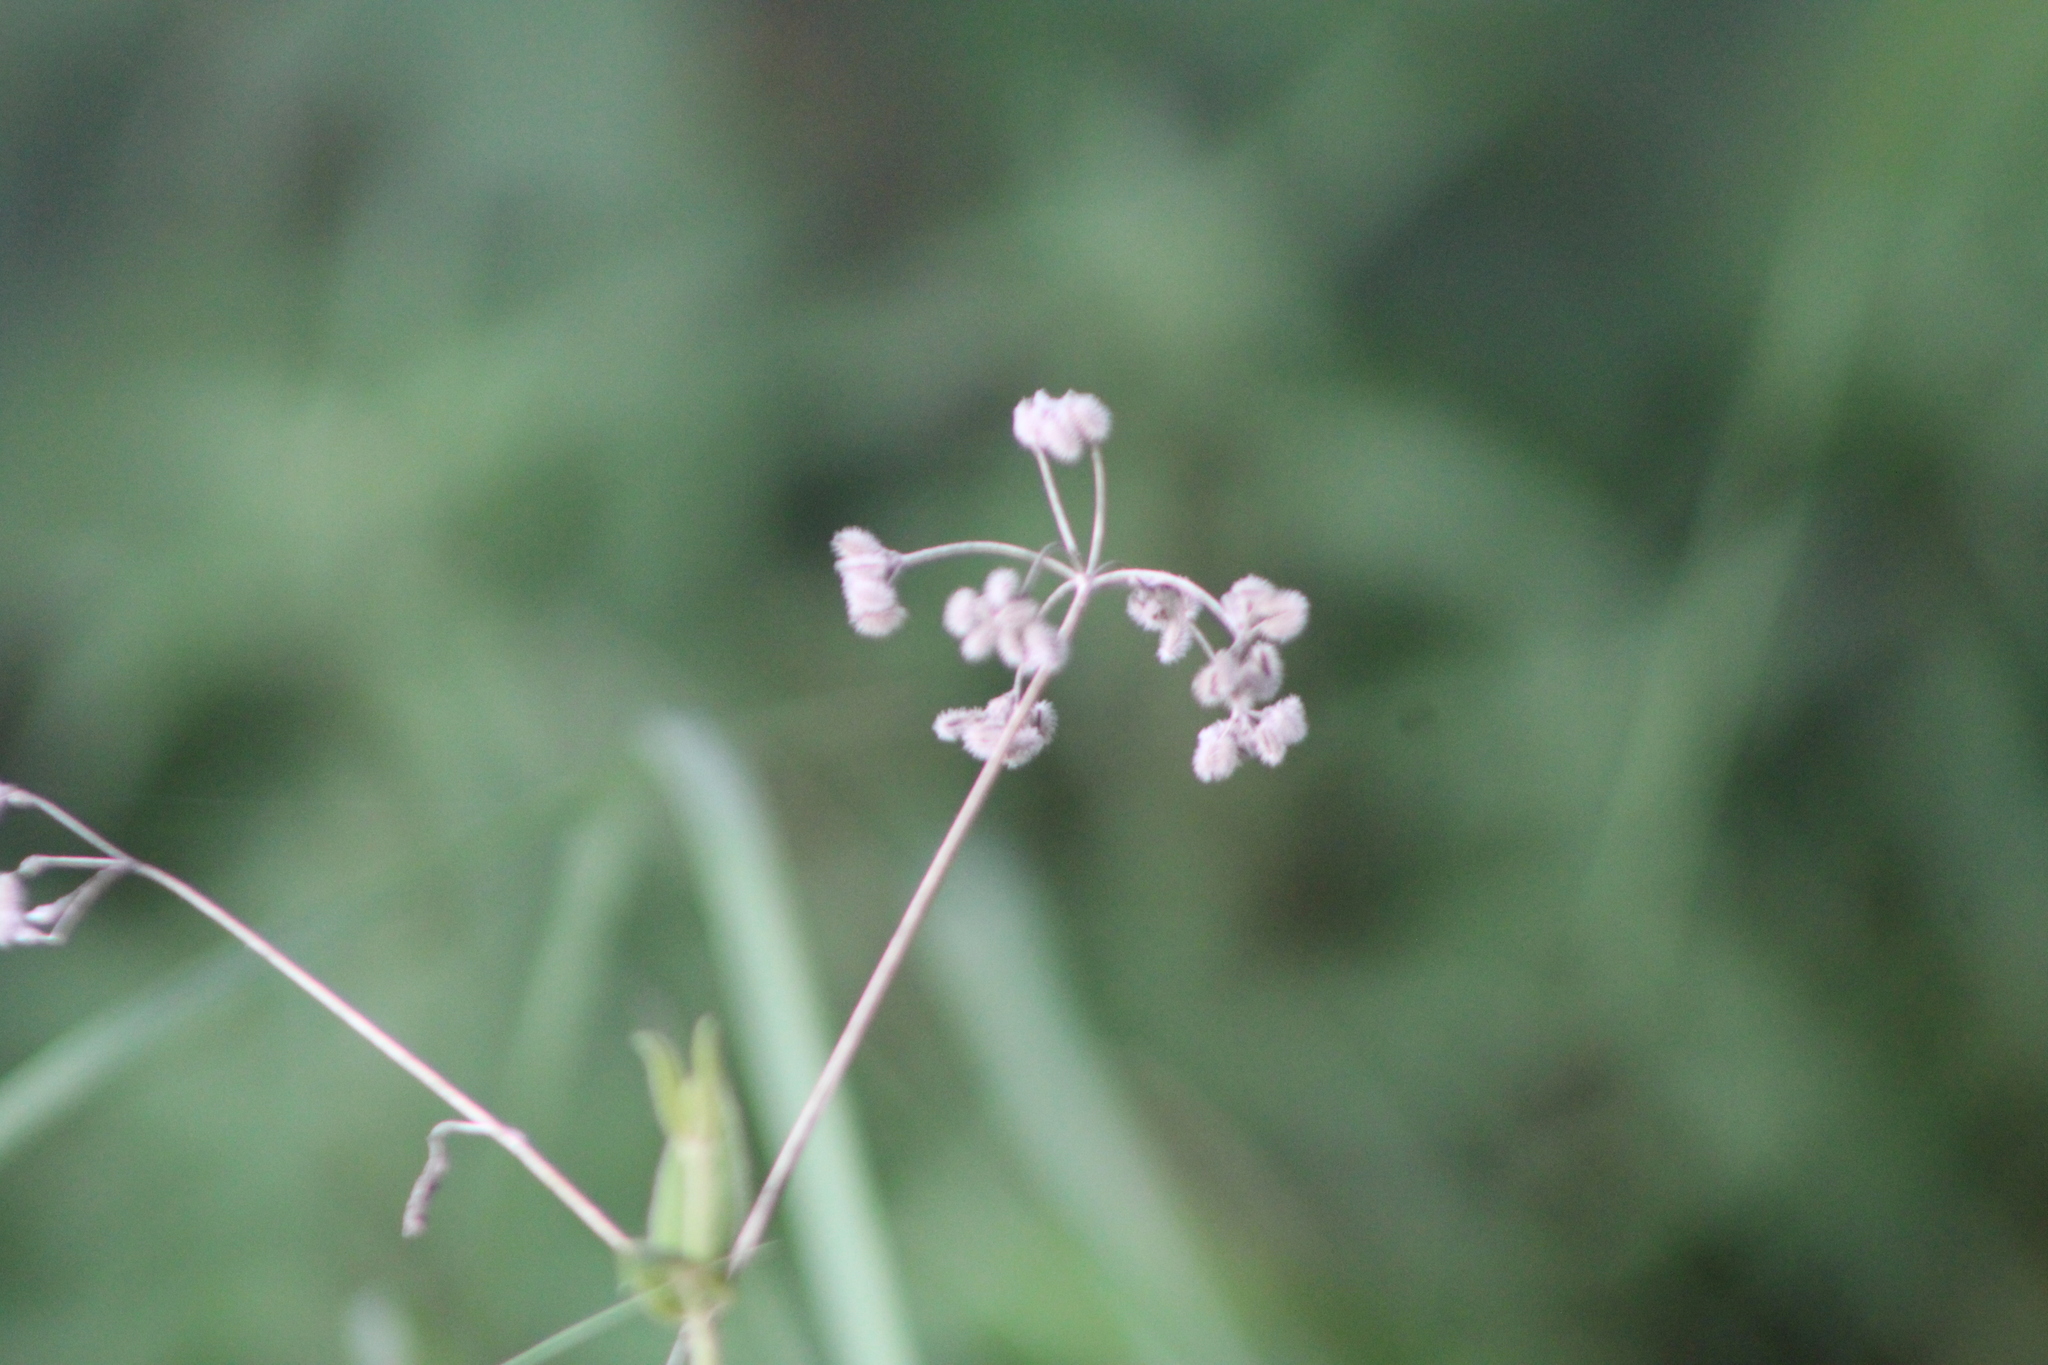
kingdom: Plantae
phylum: Tracheophyta
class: Magnoliopsida
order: Apiales
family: Apiaceae
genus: Torilis
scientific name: Torilis arvensis
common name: Spreading hedge-parsley
